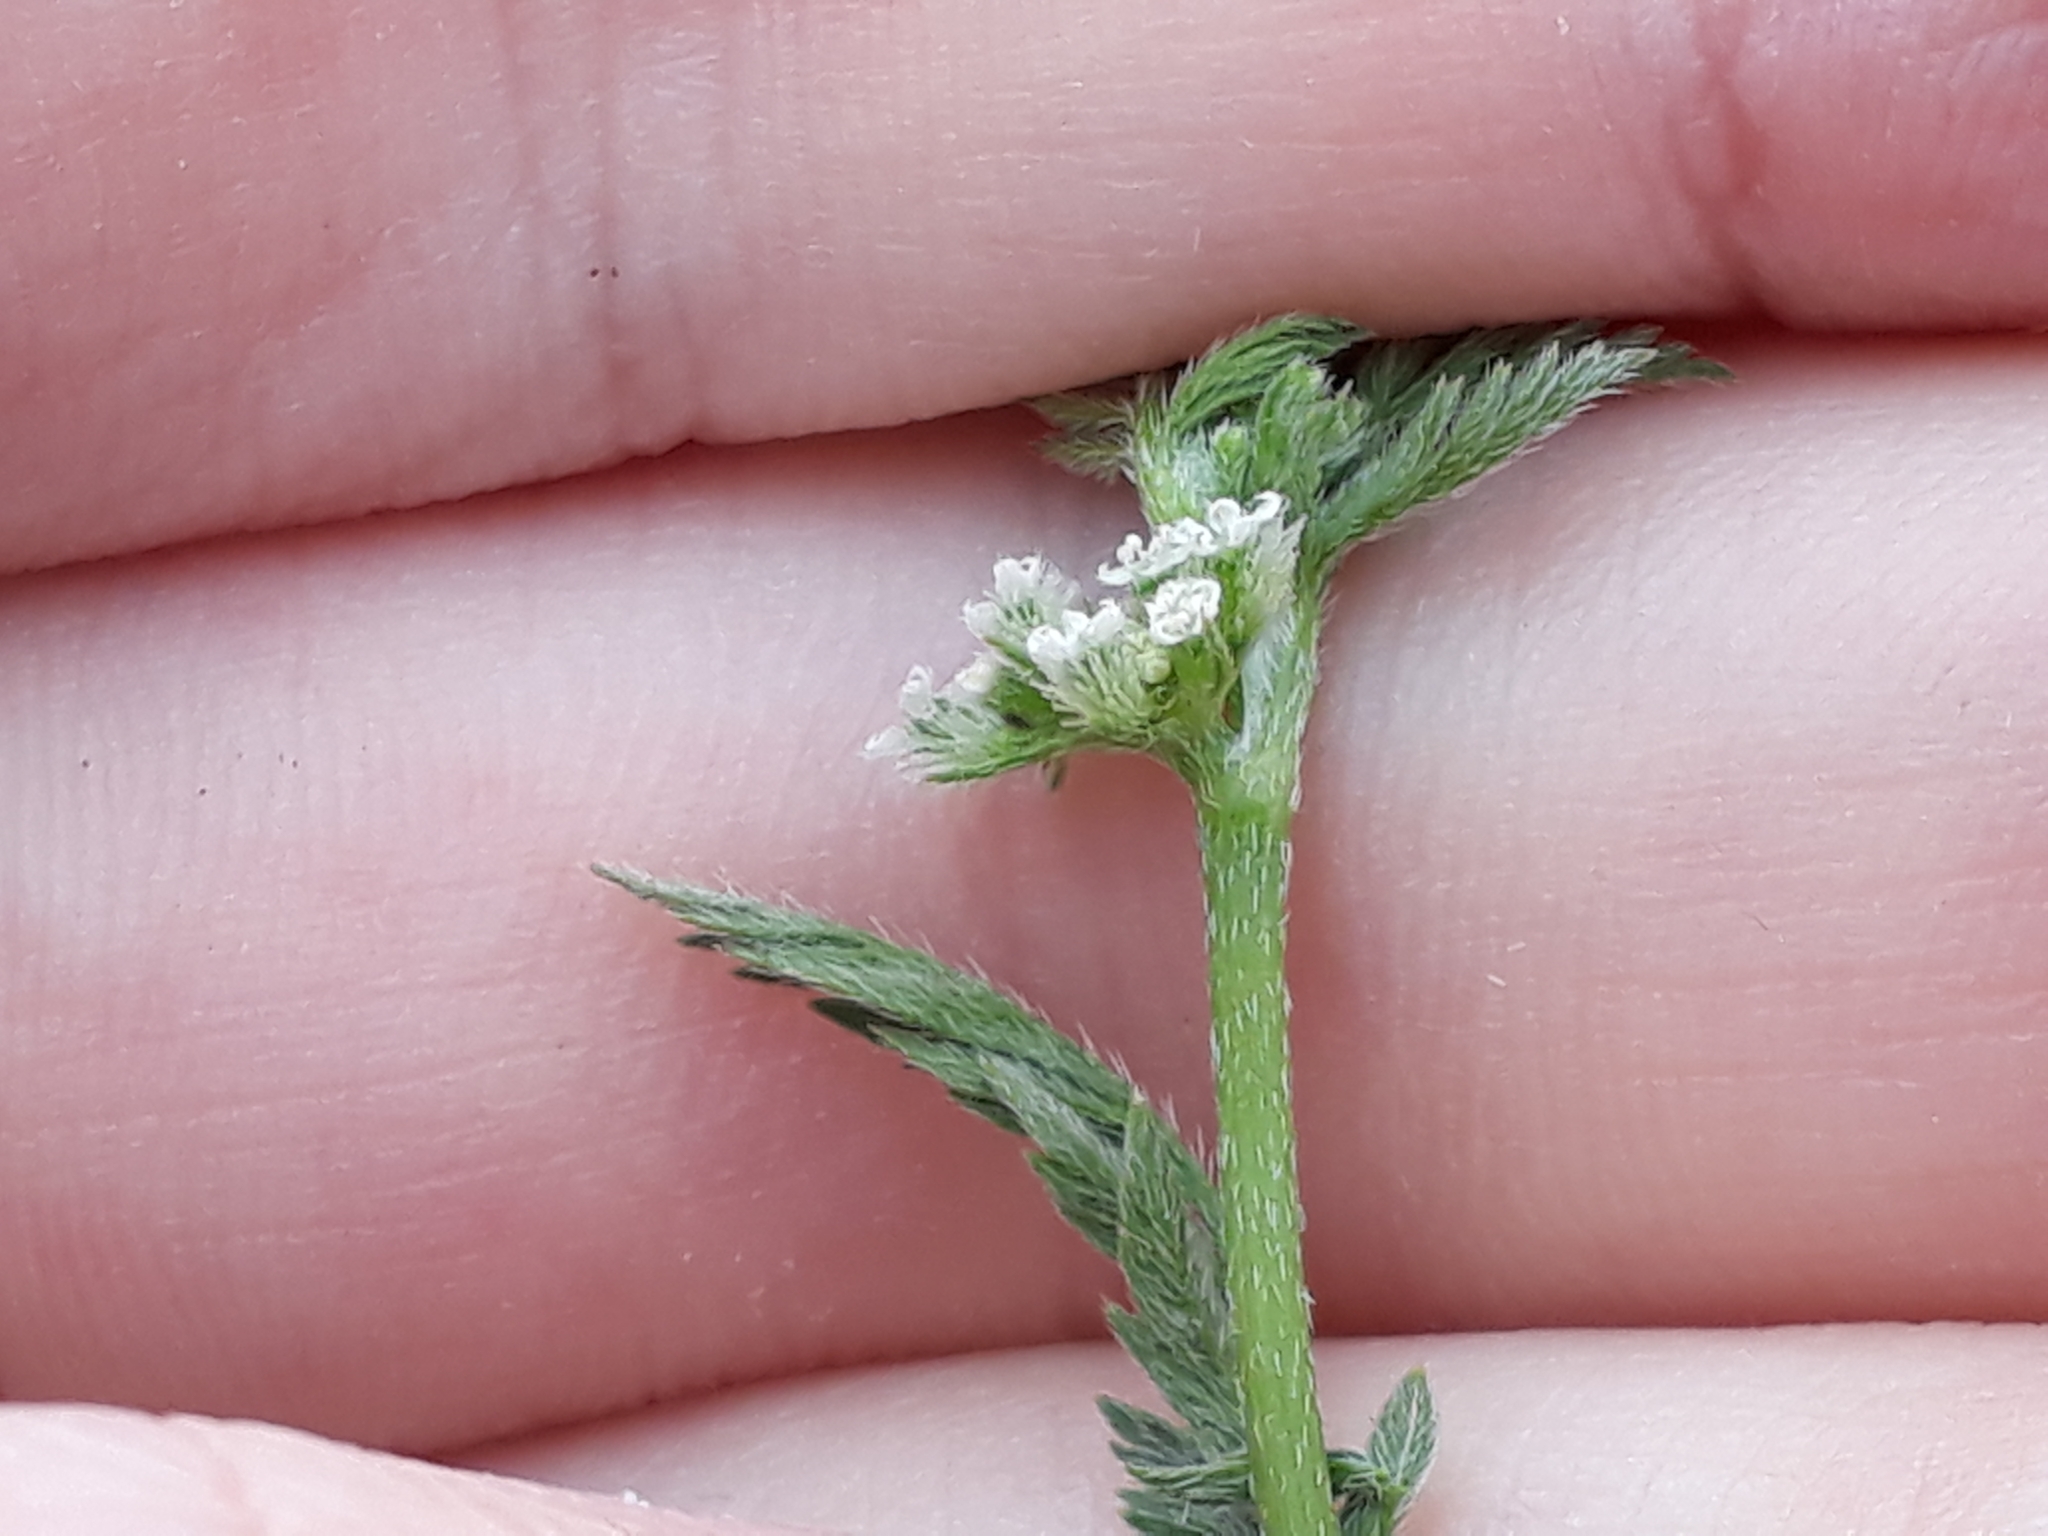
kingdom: Plantae
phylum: Tracheophyta
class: Magnoliopsida
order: Apiales
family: Apiaceae
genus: Torilis
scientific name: Torilis nodosa
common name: Knotted hedge-parsley
